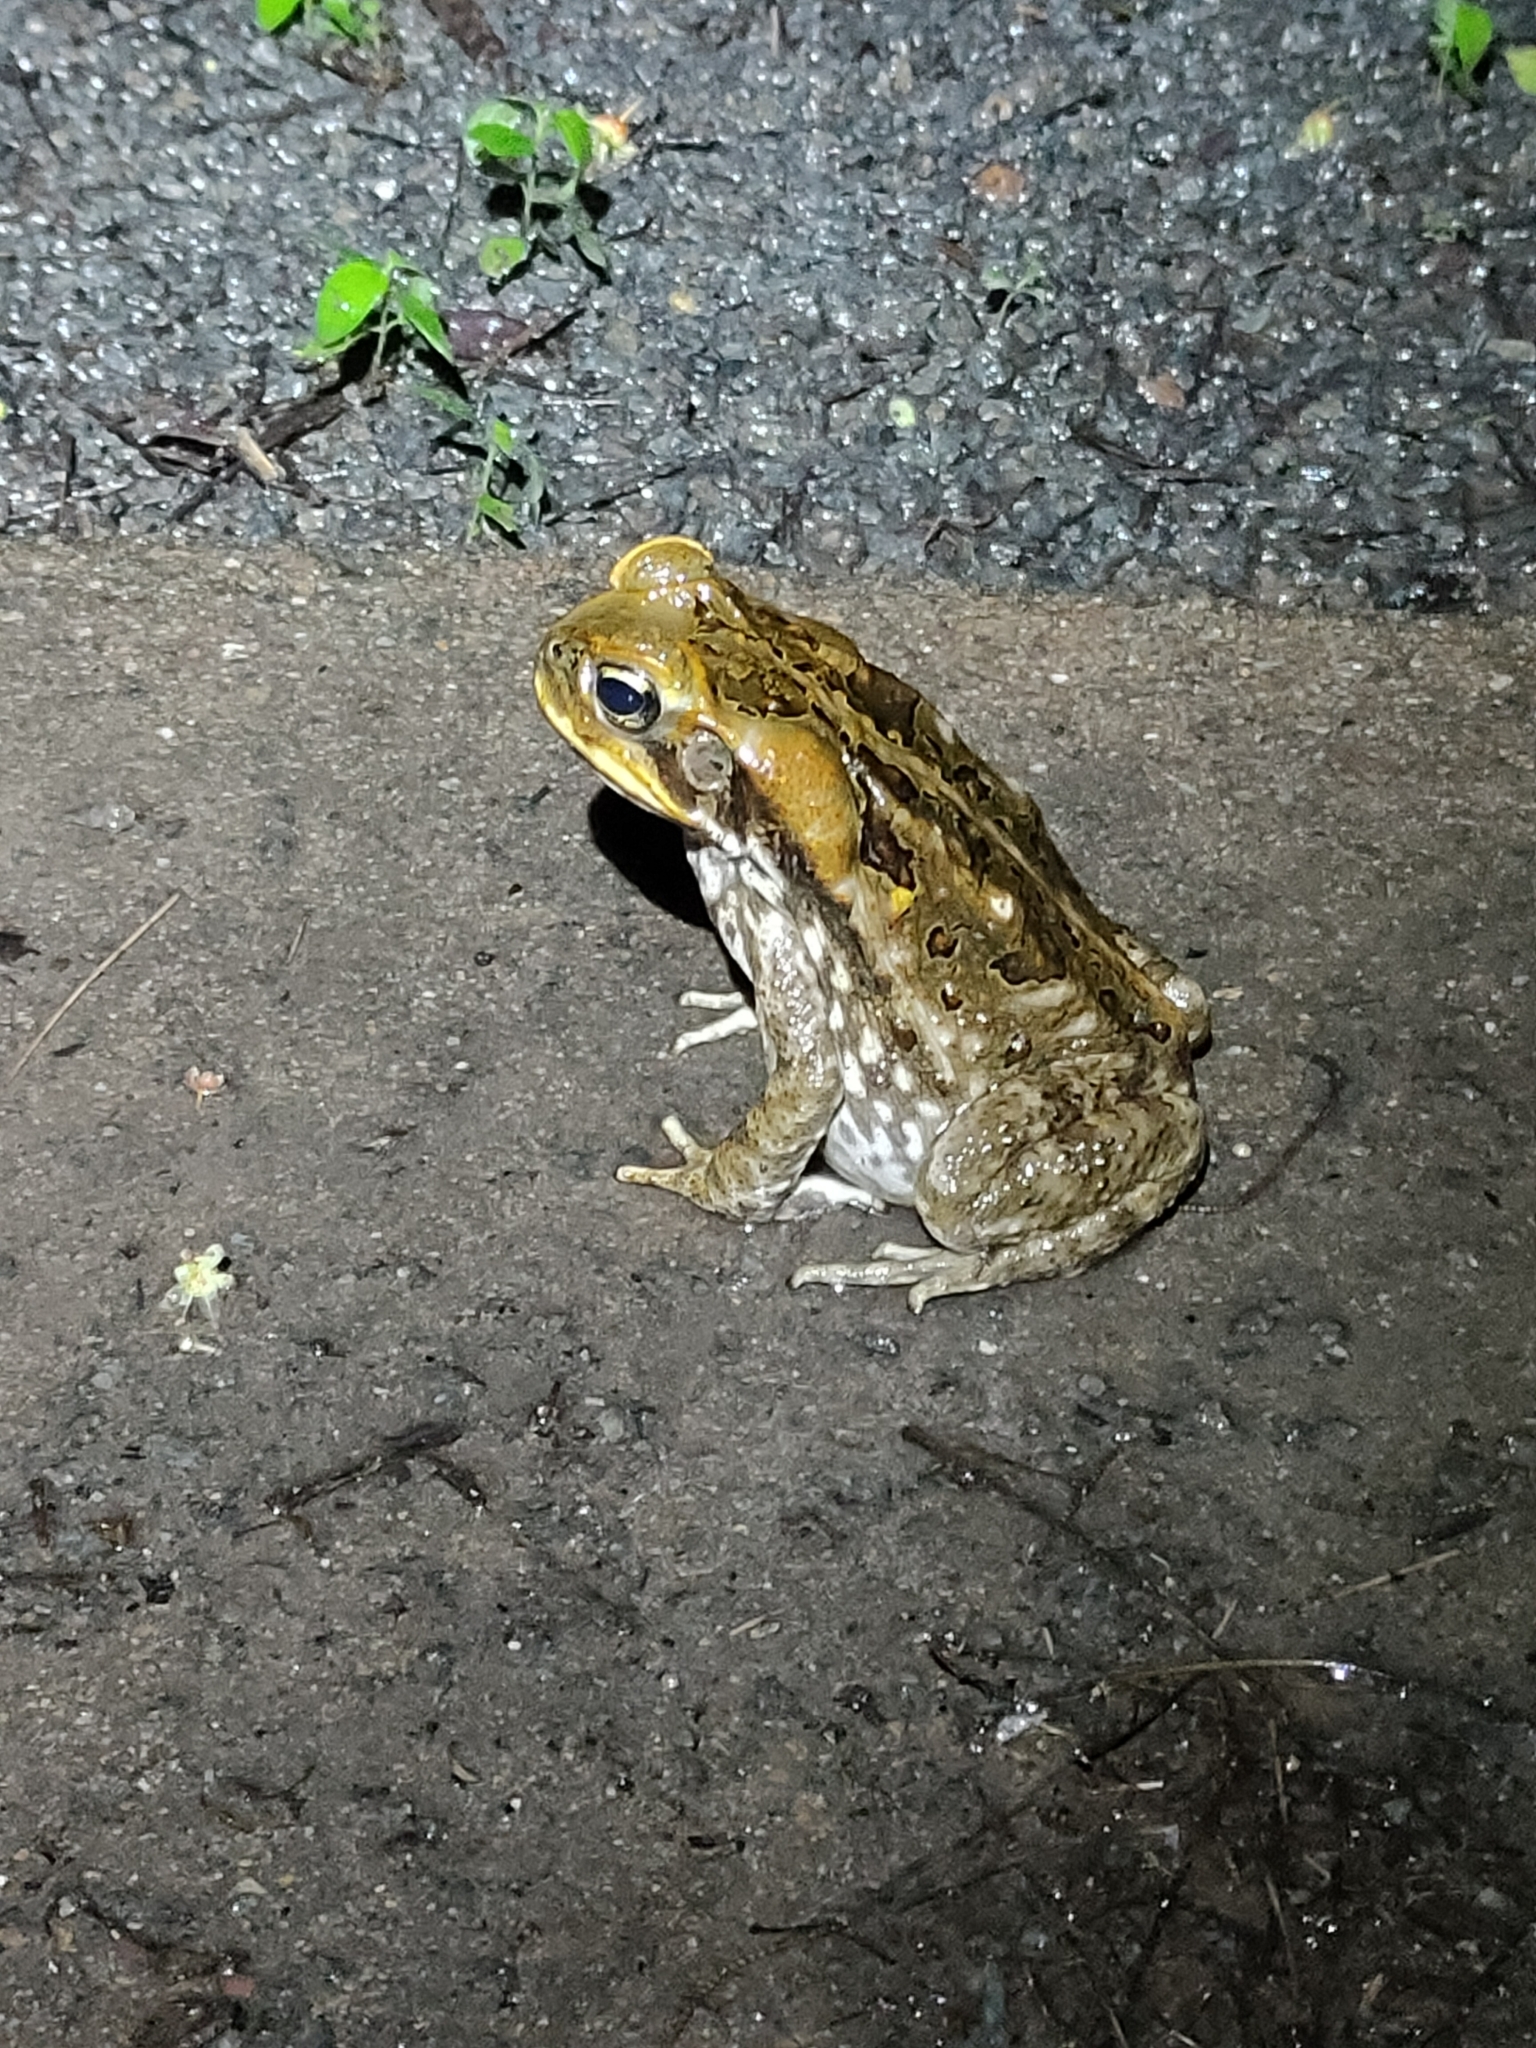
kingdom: Animalia
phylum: Chordata
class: Amphibia
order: Anura
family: Bufonidae
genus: Rhinella
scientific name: Rhinella marina
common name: Cane toad
